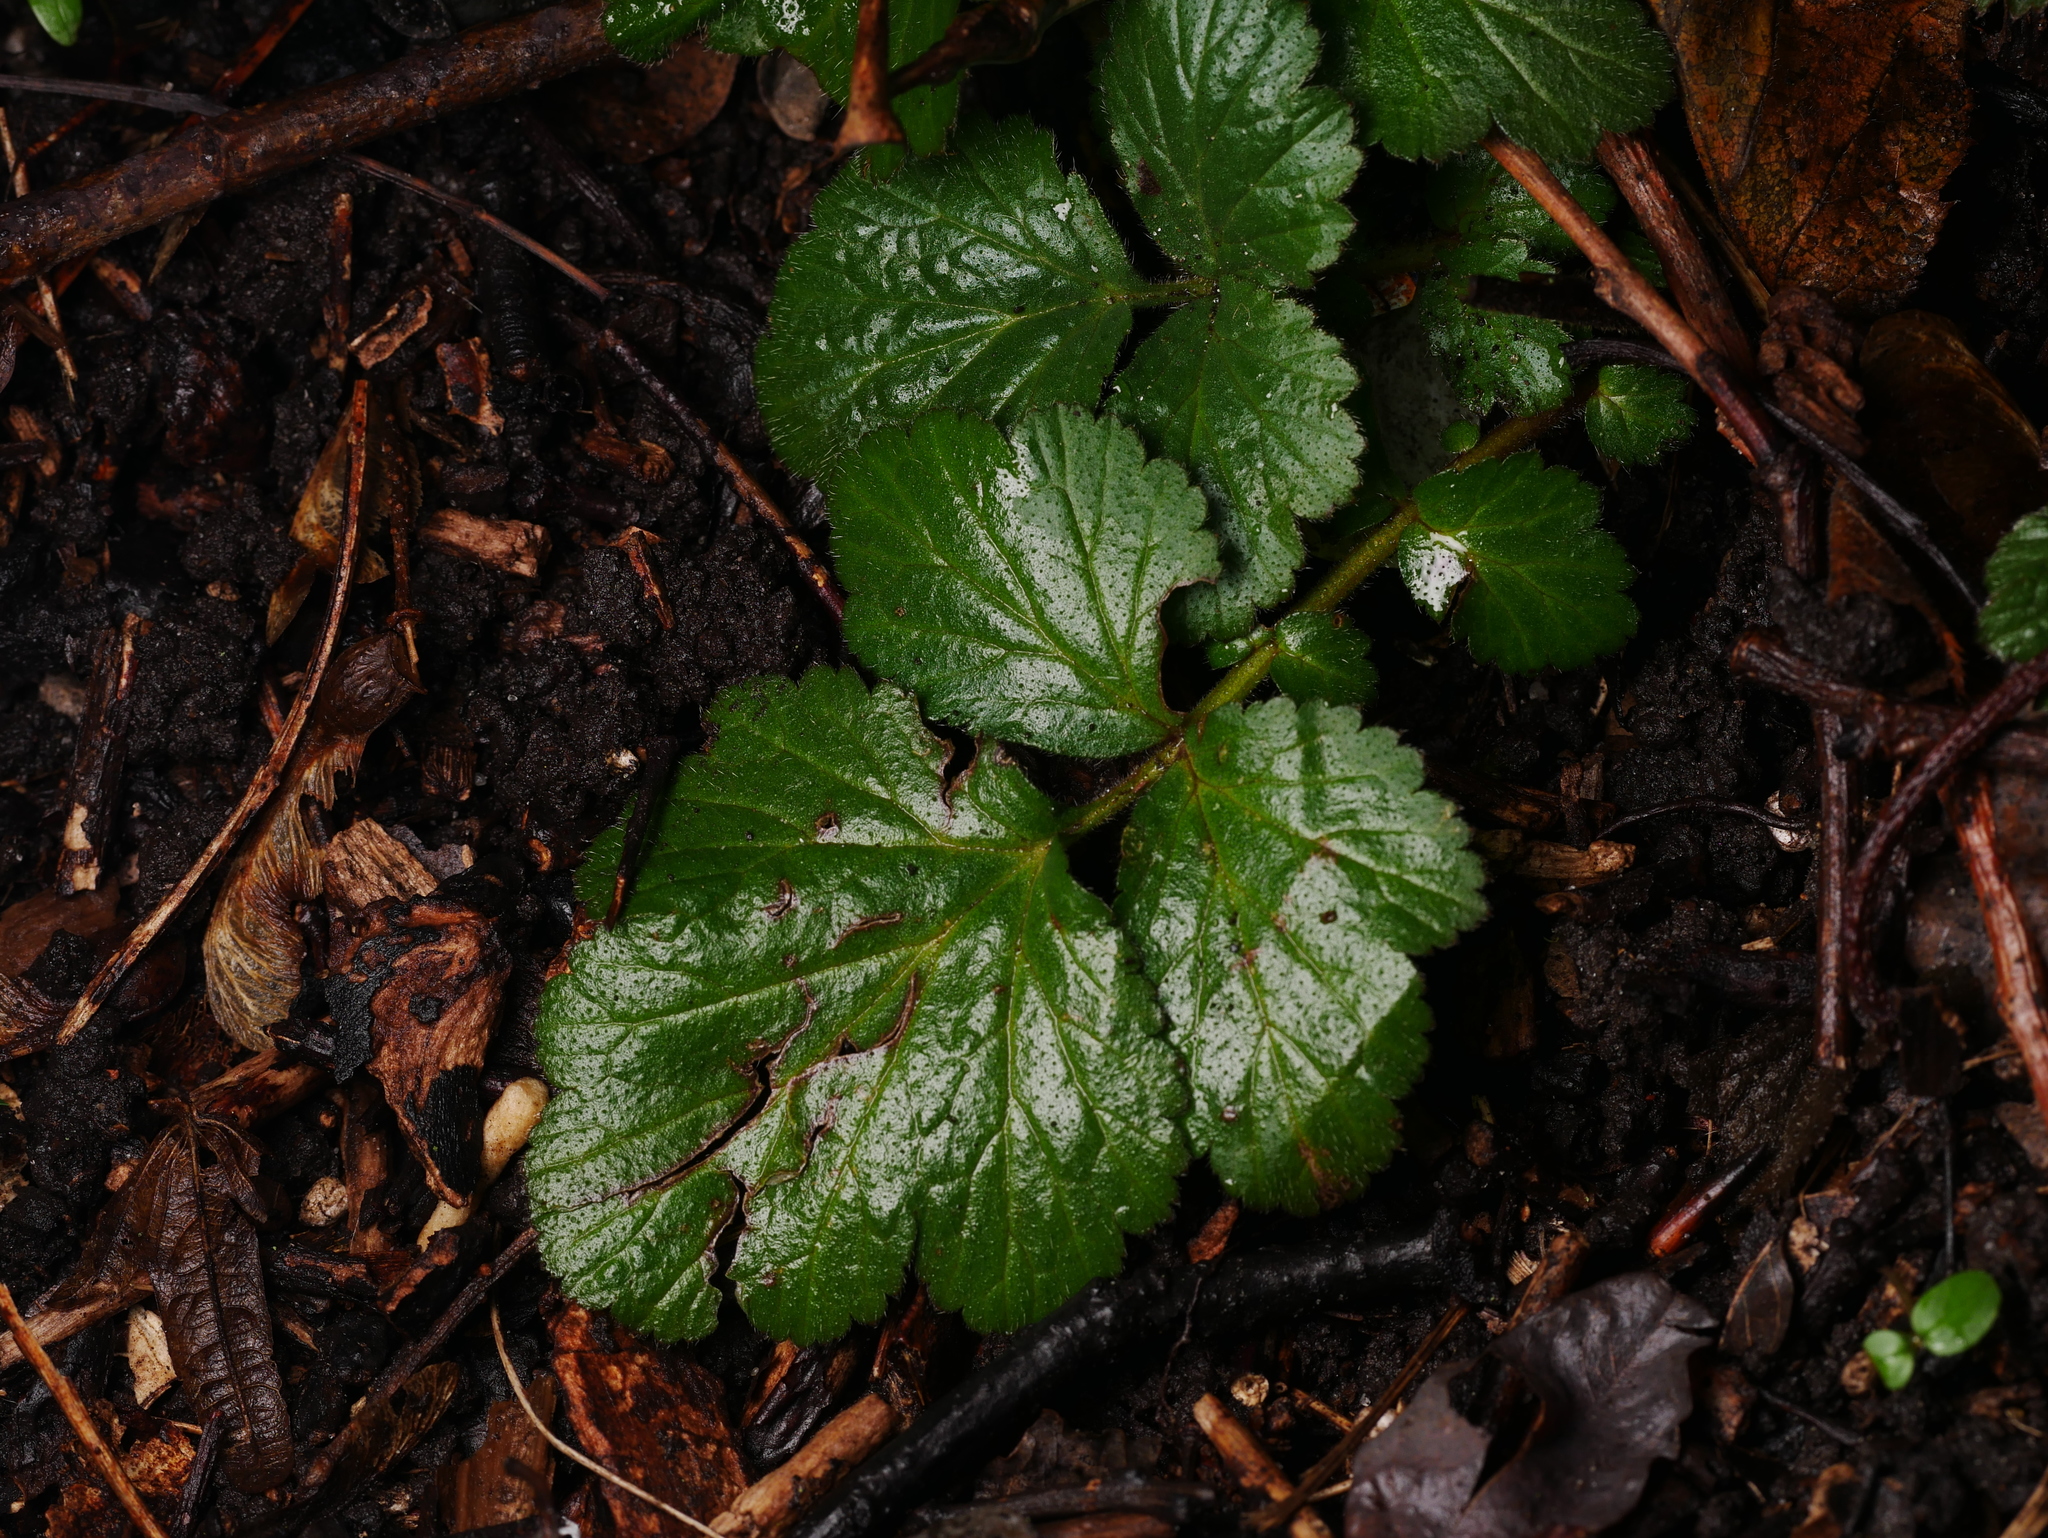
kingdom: Plantae
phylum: Tracheophyta
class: Magnoliopsida
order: Rosales
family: Rosaceae
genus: Geum
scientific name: Geum urbanum
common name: Wood avens
